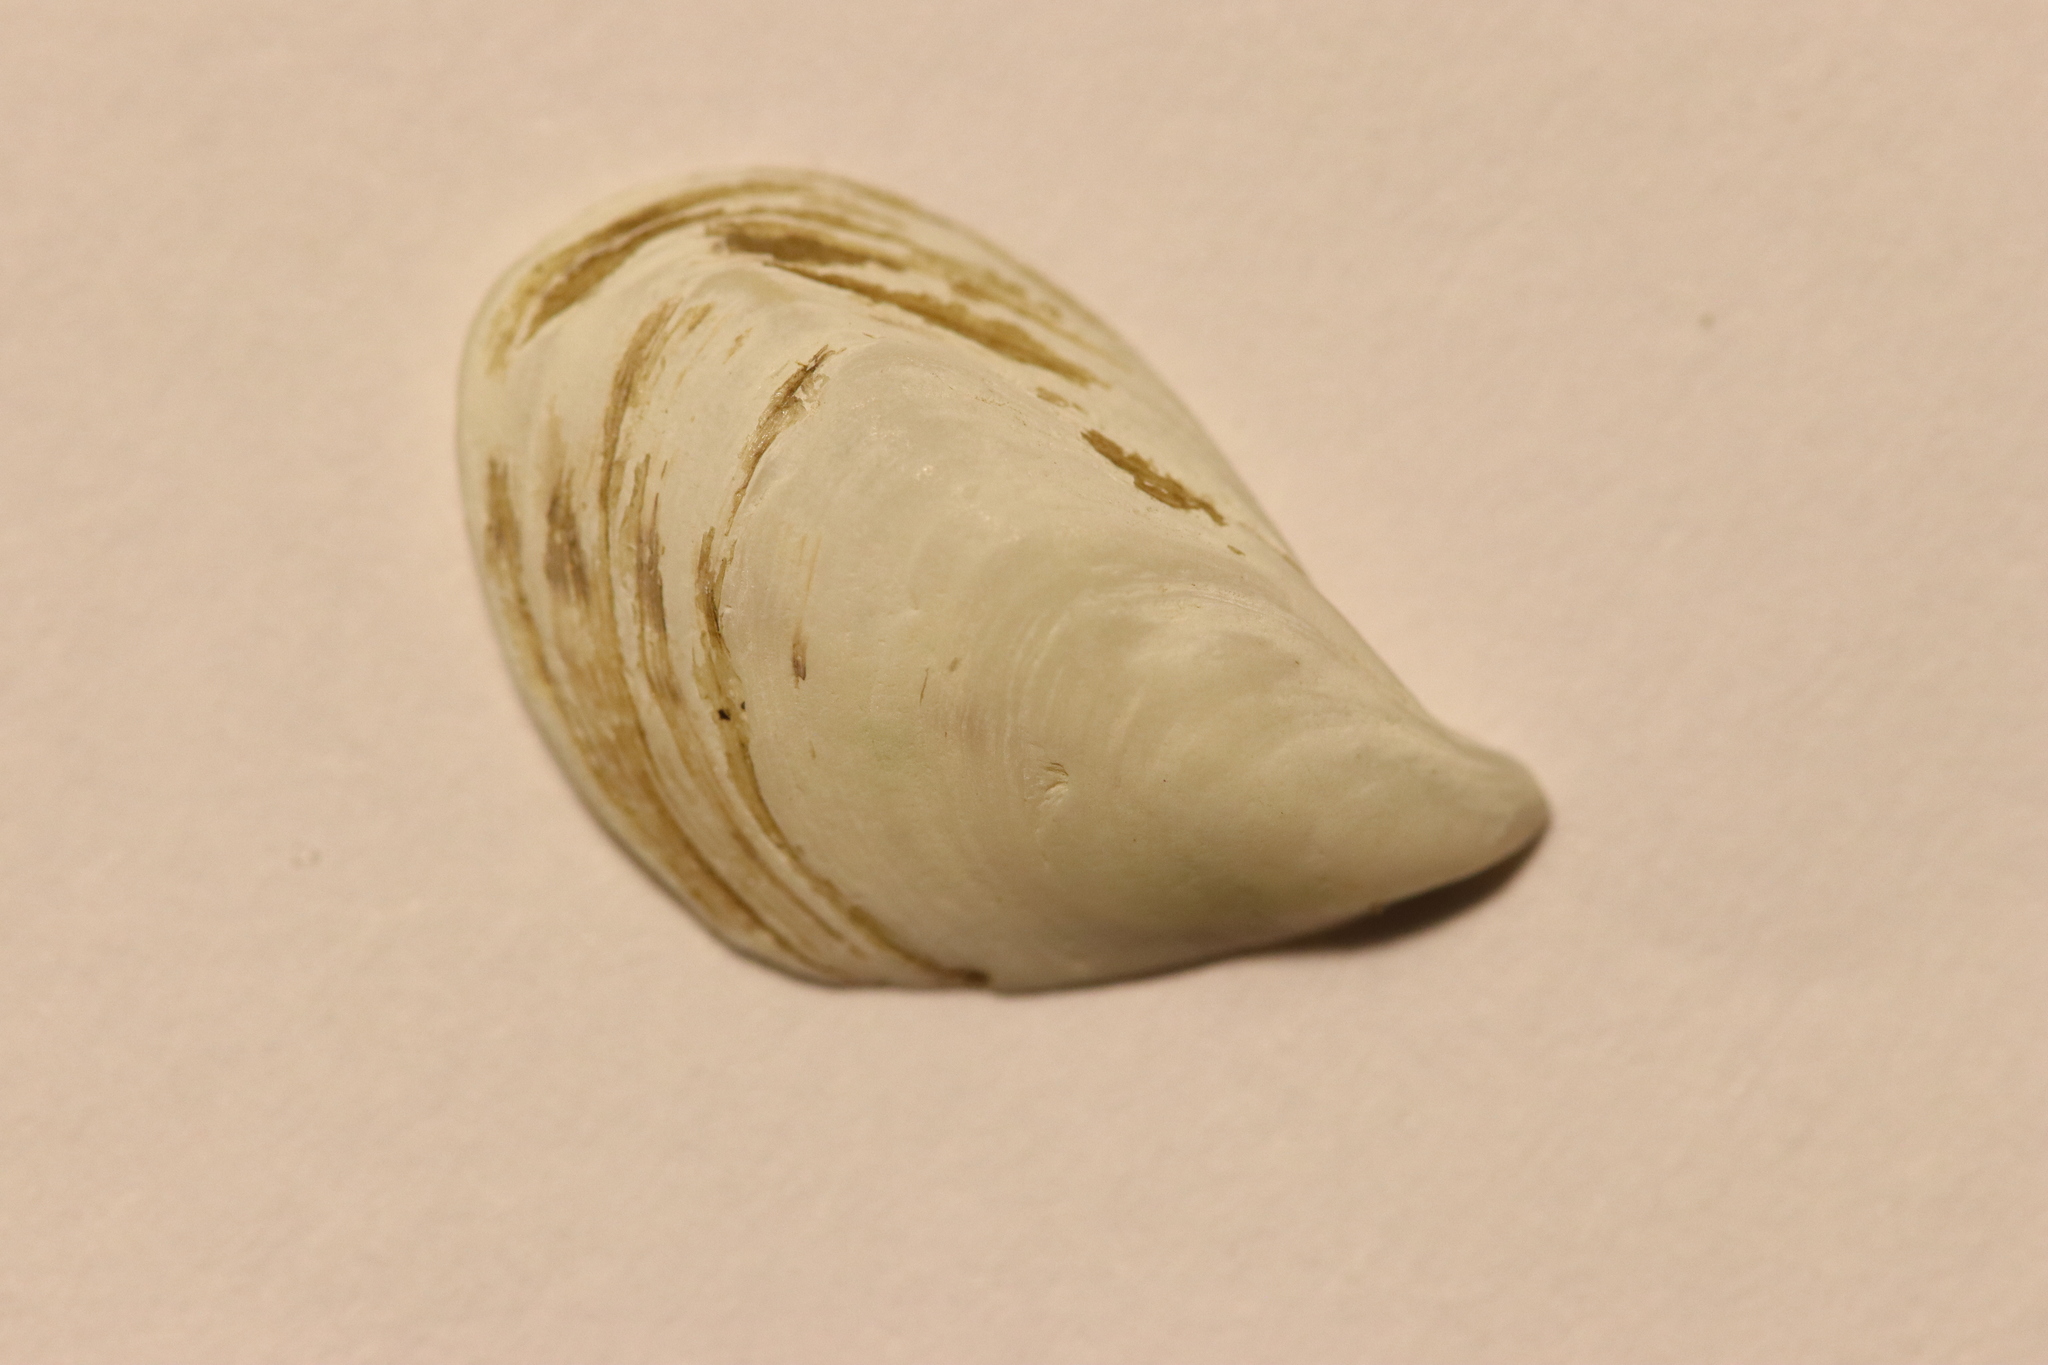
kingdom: Animalia
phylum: Mollusca
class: Bivalvia
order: Myida
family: Dreissenidae
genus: Dreissena
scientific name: Dreissena bugensis
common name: Quagga mussel
